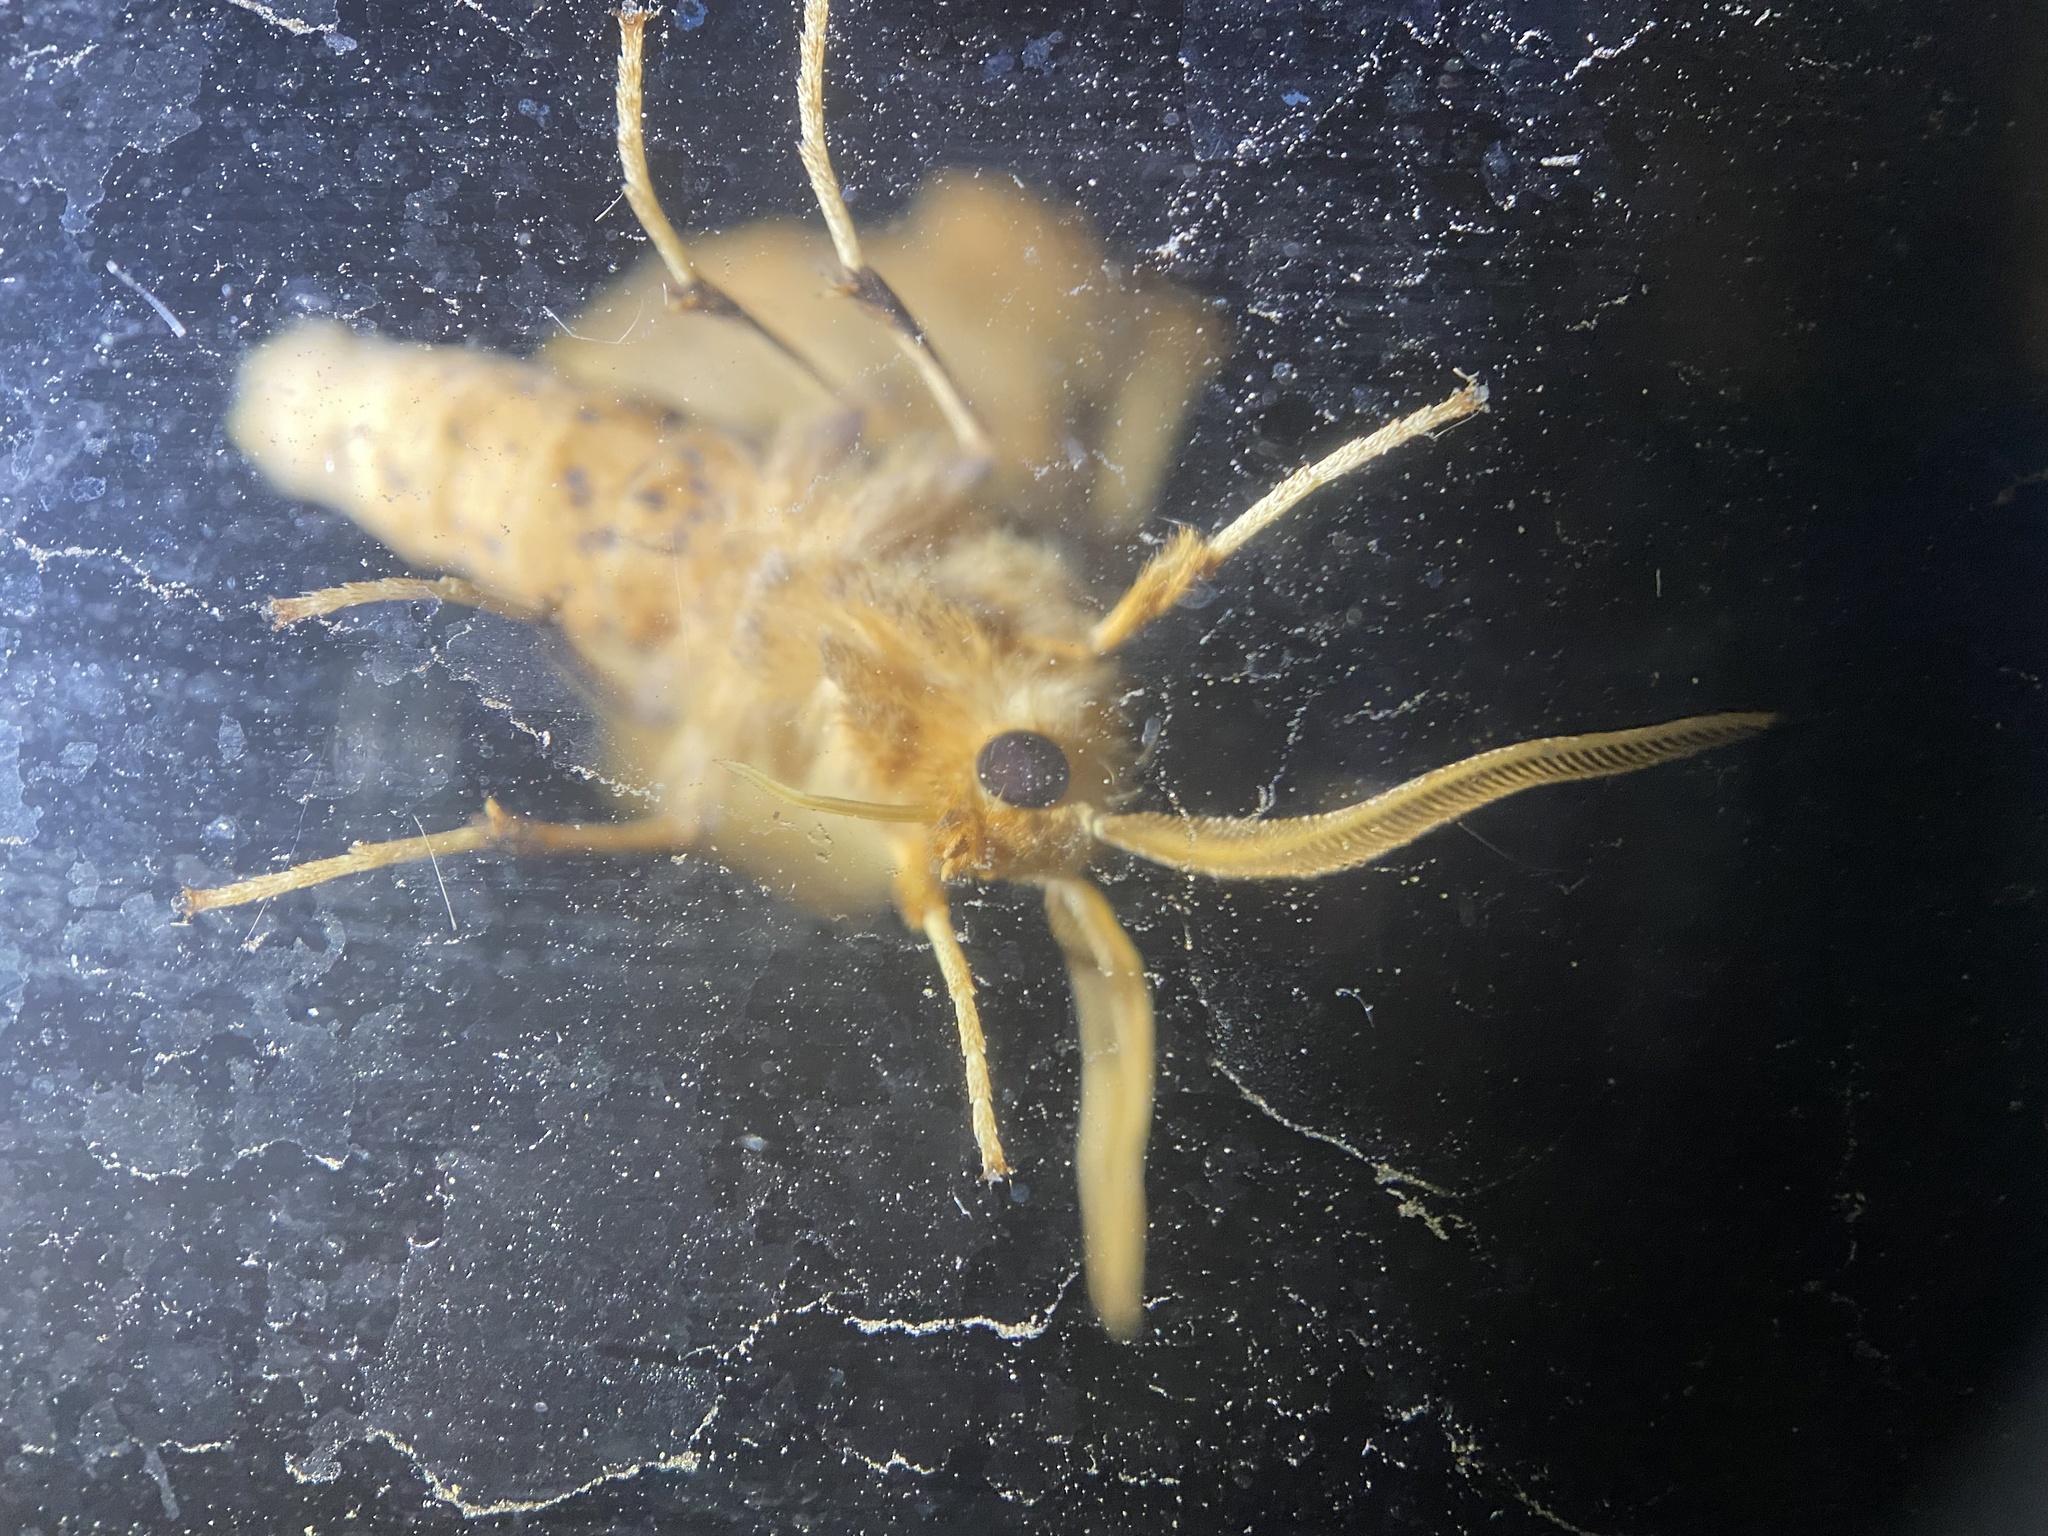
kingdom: Animalia
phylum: Arthropoda
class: Insecta
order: Lepidoptera
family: Geometridae
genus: Ennomos
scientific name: Ennomos magnaria
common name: Maple spanworm
